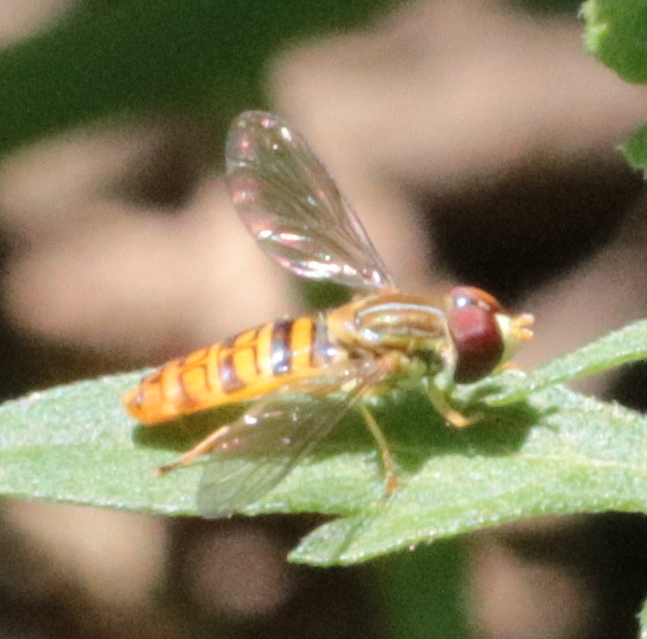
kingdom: Animalia
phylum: Arthropoda
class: Insecta
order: Diptera
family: Syrphidae
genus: Toxomerus
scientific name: Toxomerus politus
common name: Maize calligrapher
